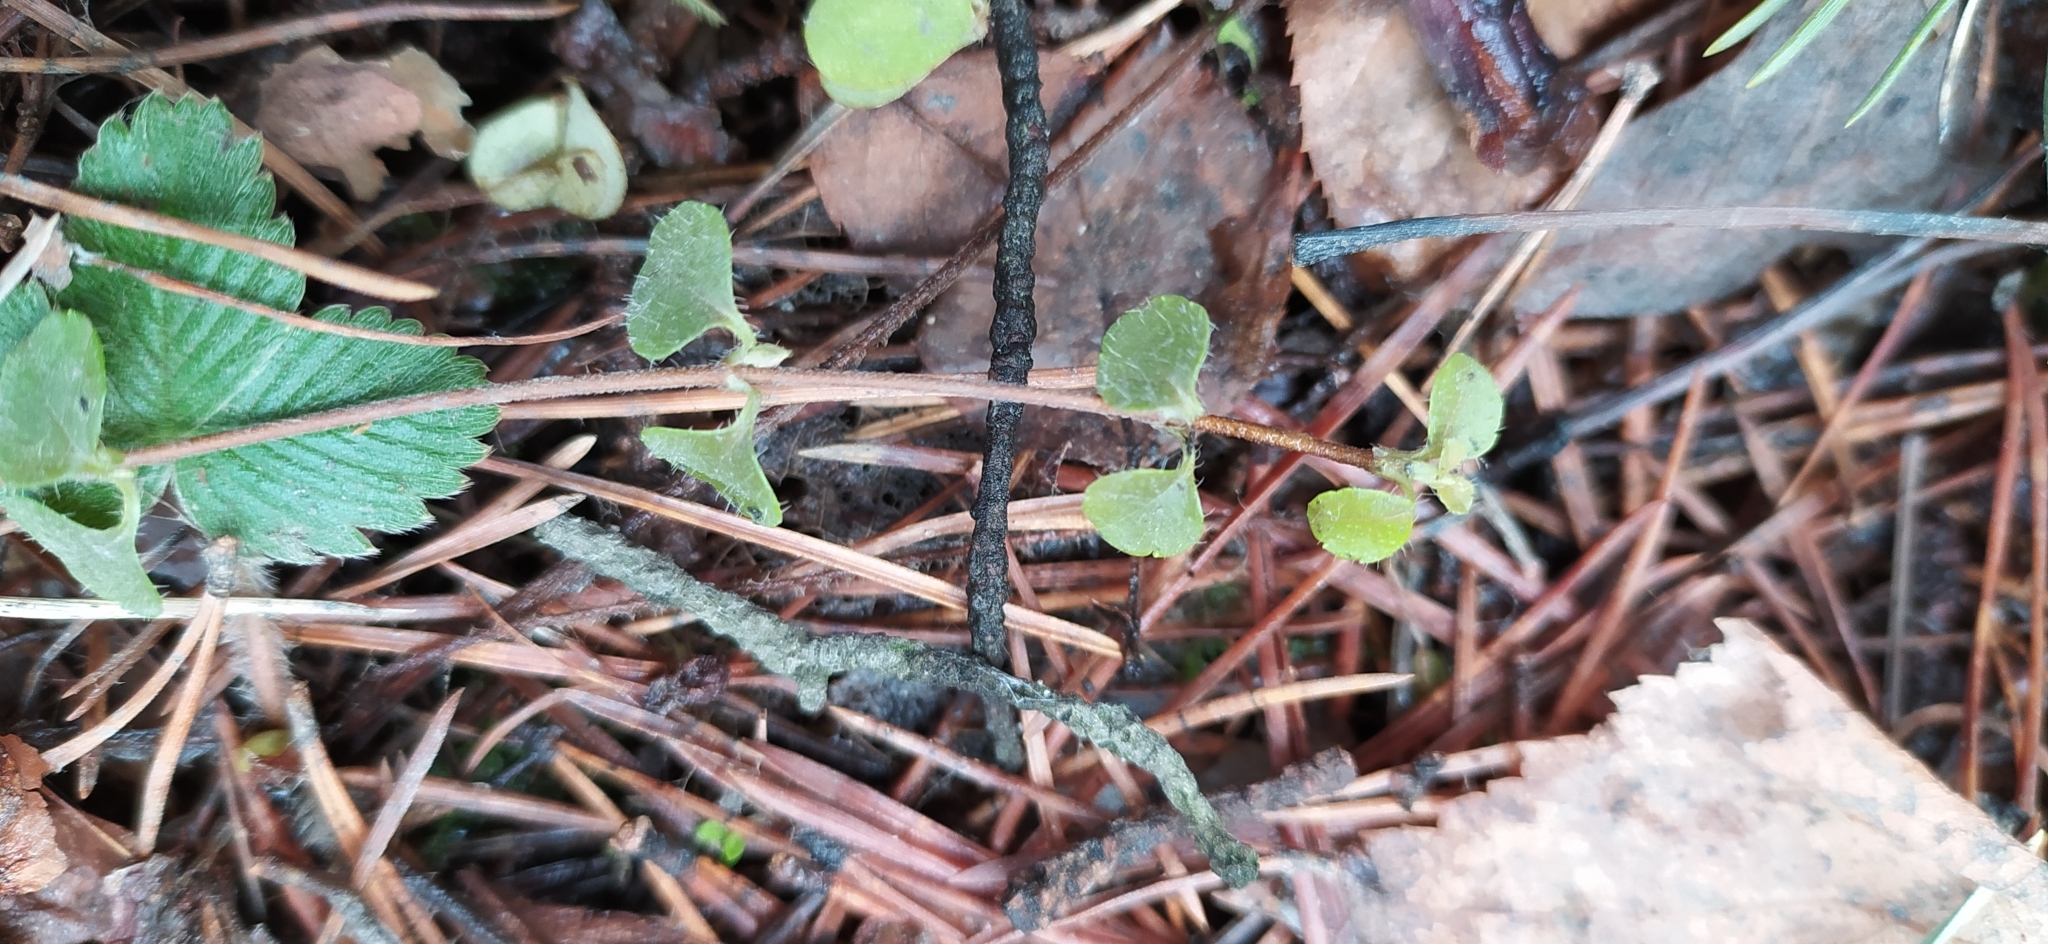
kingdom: Plantae
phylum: Tracheophyta
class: Magnoliopsida
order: Dipsacales
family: Caprifoliaceae
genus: Linnaea
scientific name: Linnaea borealis
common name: Twinflower
